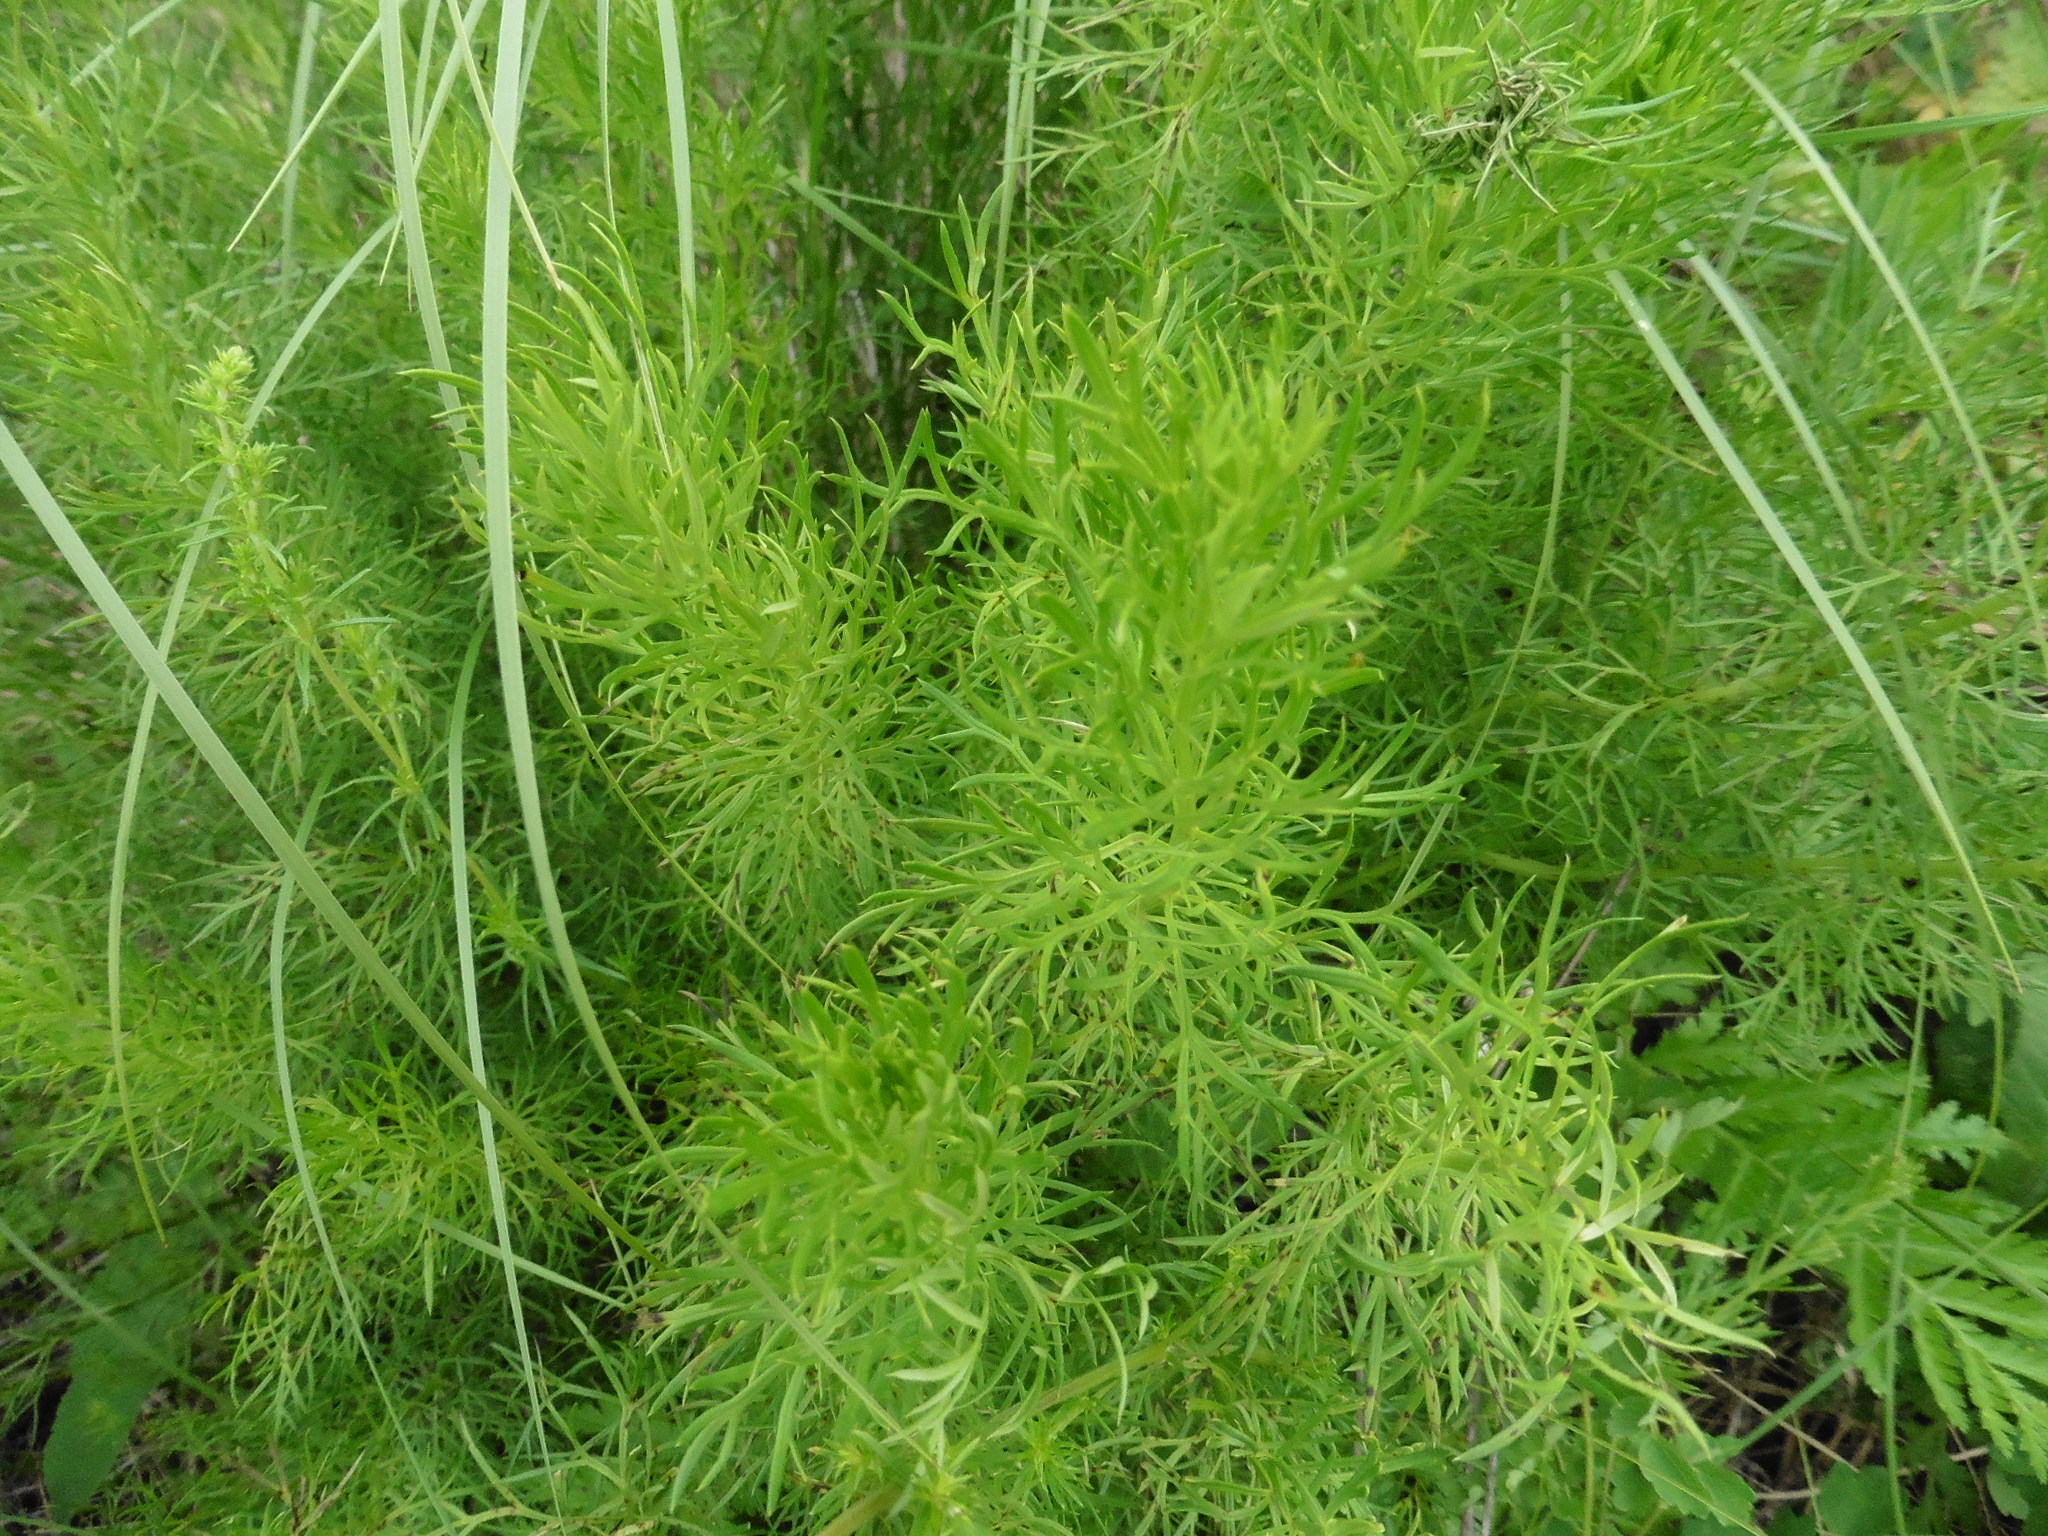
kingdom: Plantae
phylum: Tracheophyta
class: Magnoliopsida
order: Ranunculales
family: Ranunculaceae
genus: Adonis
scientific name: Adonis vernalis
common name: Yellow pheasants-eye
